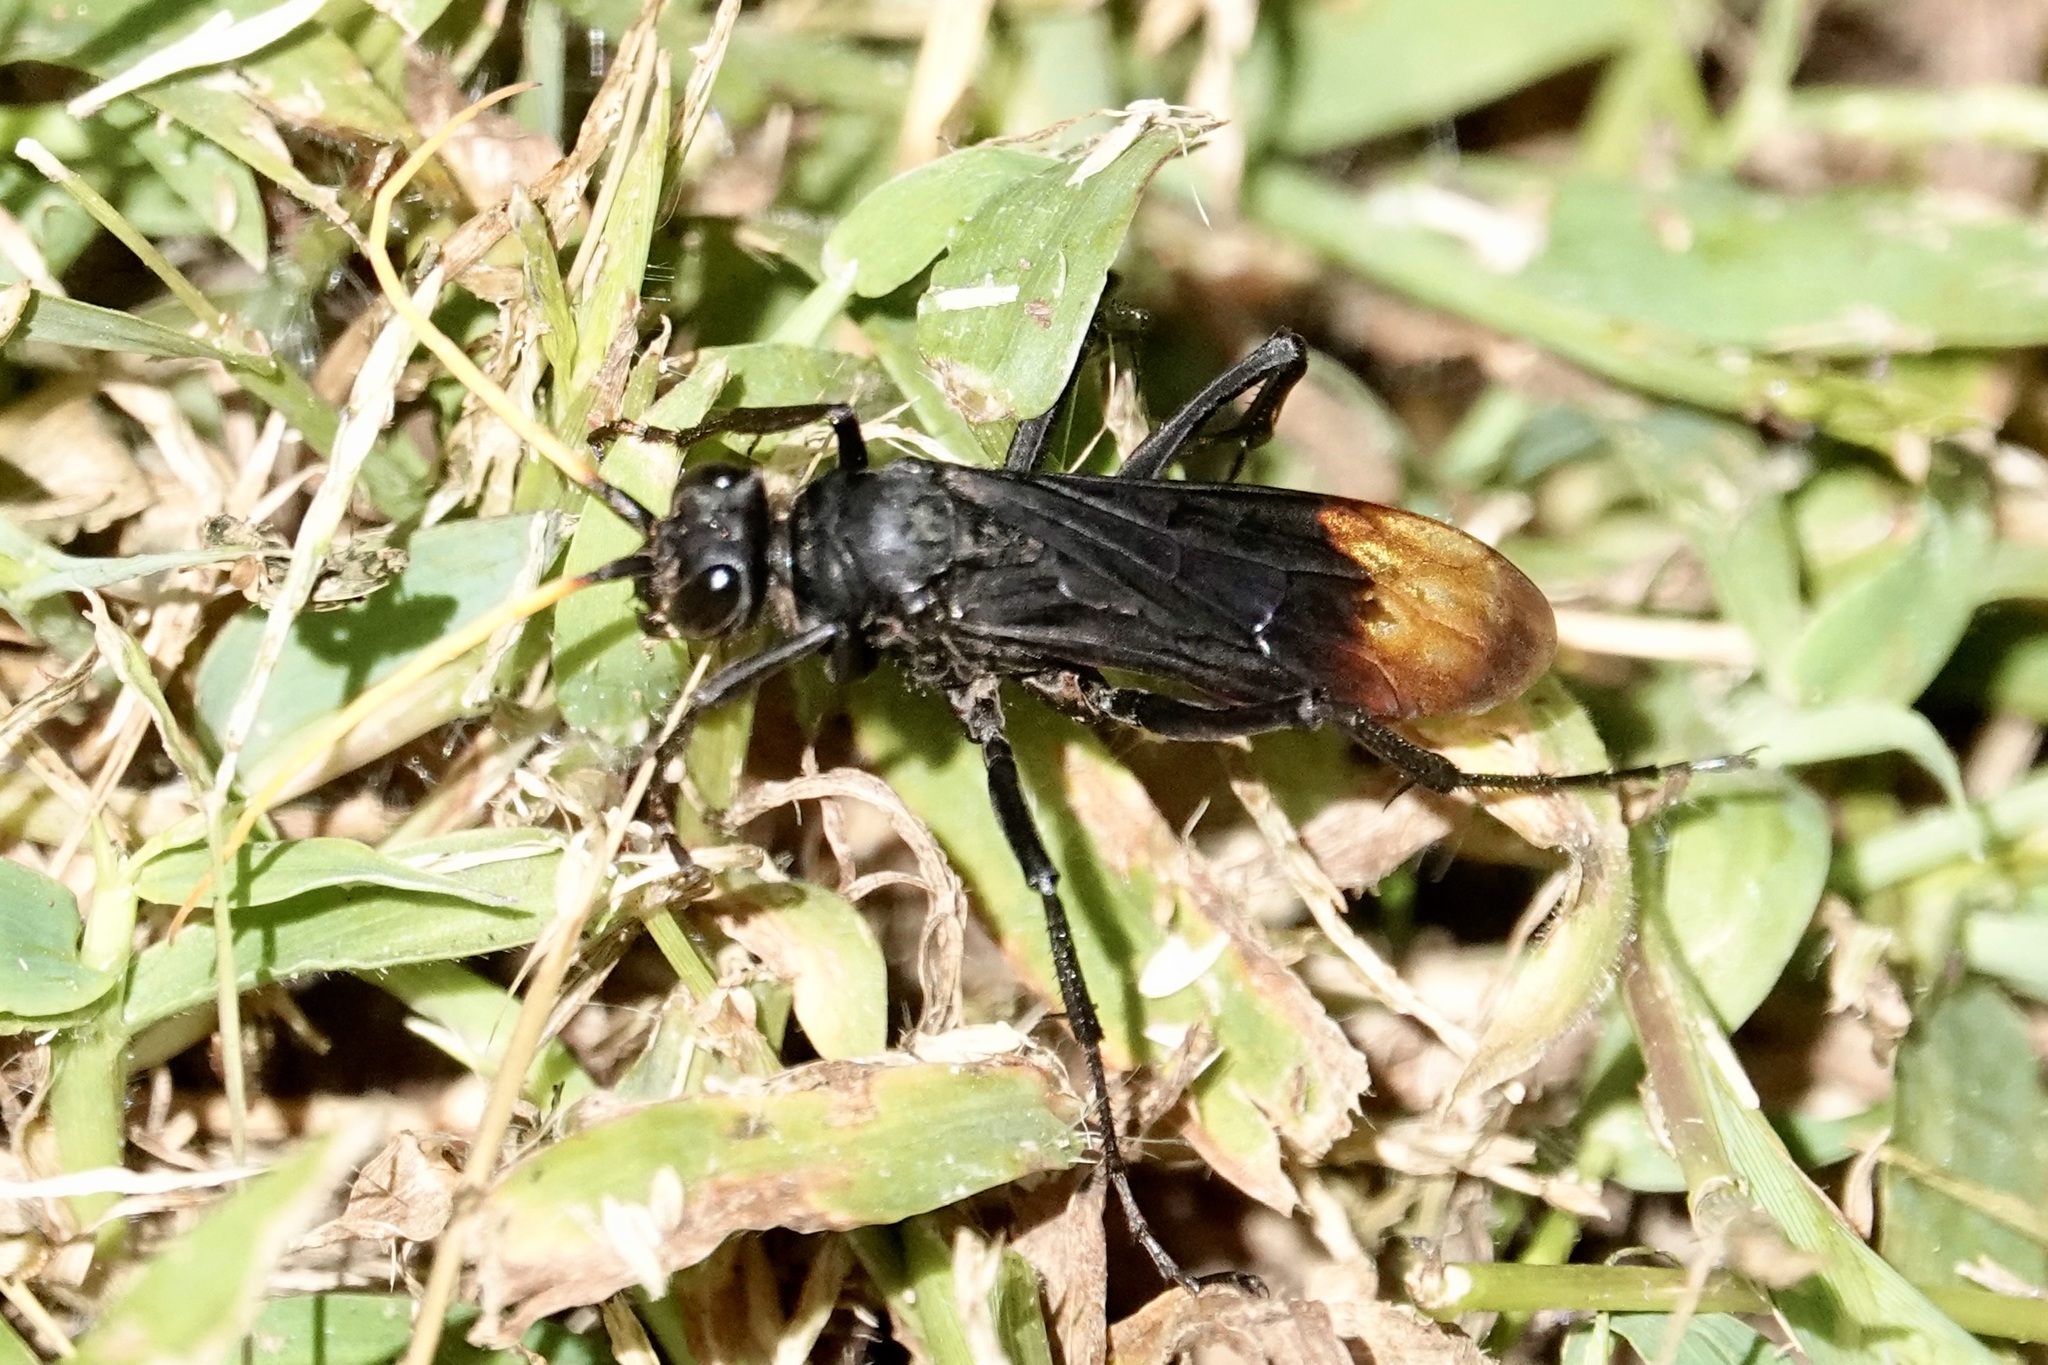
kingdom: Animalia
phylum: Arthropoda
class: Insecta
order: Hymenoptera
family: Pompilidae
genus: Entypus
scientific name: Entypus unifasciatus
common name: Eastern tawny-horned spider wasp
